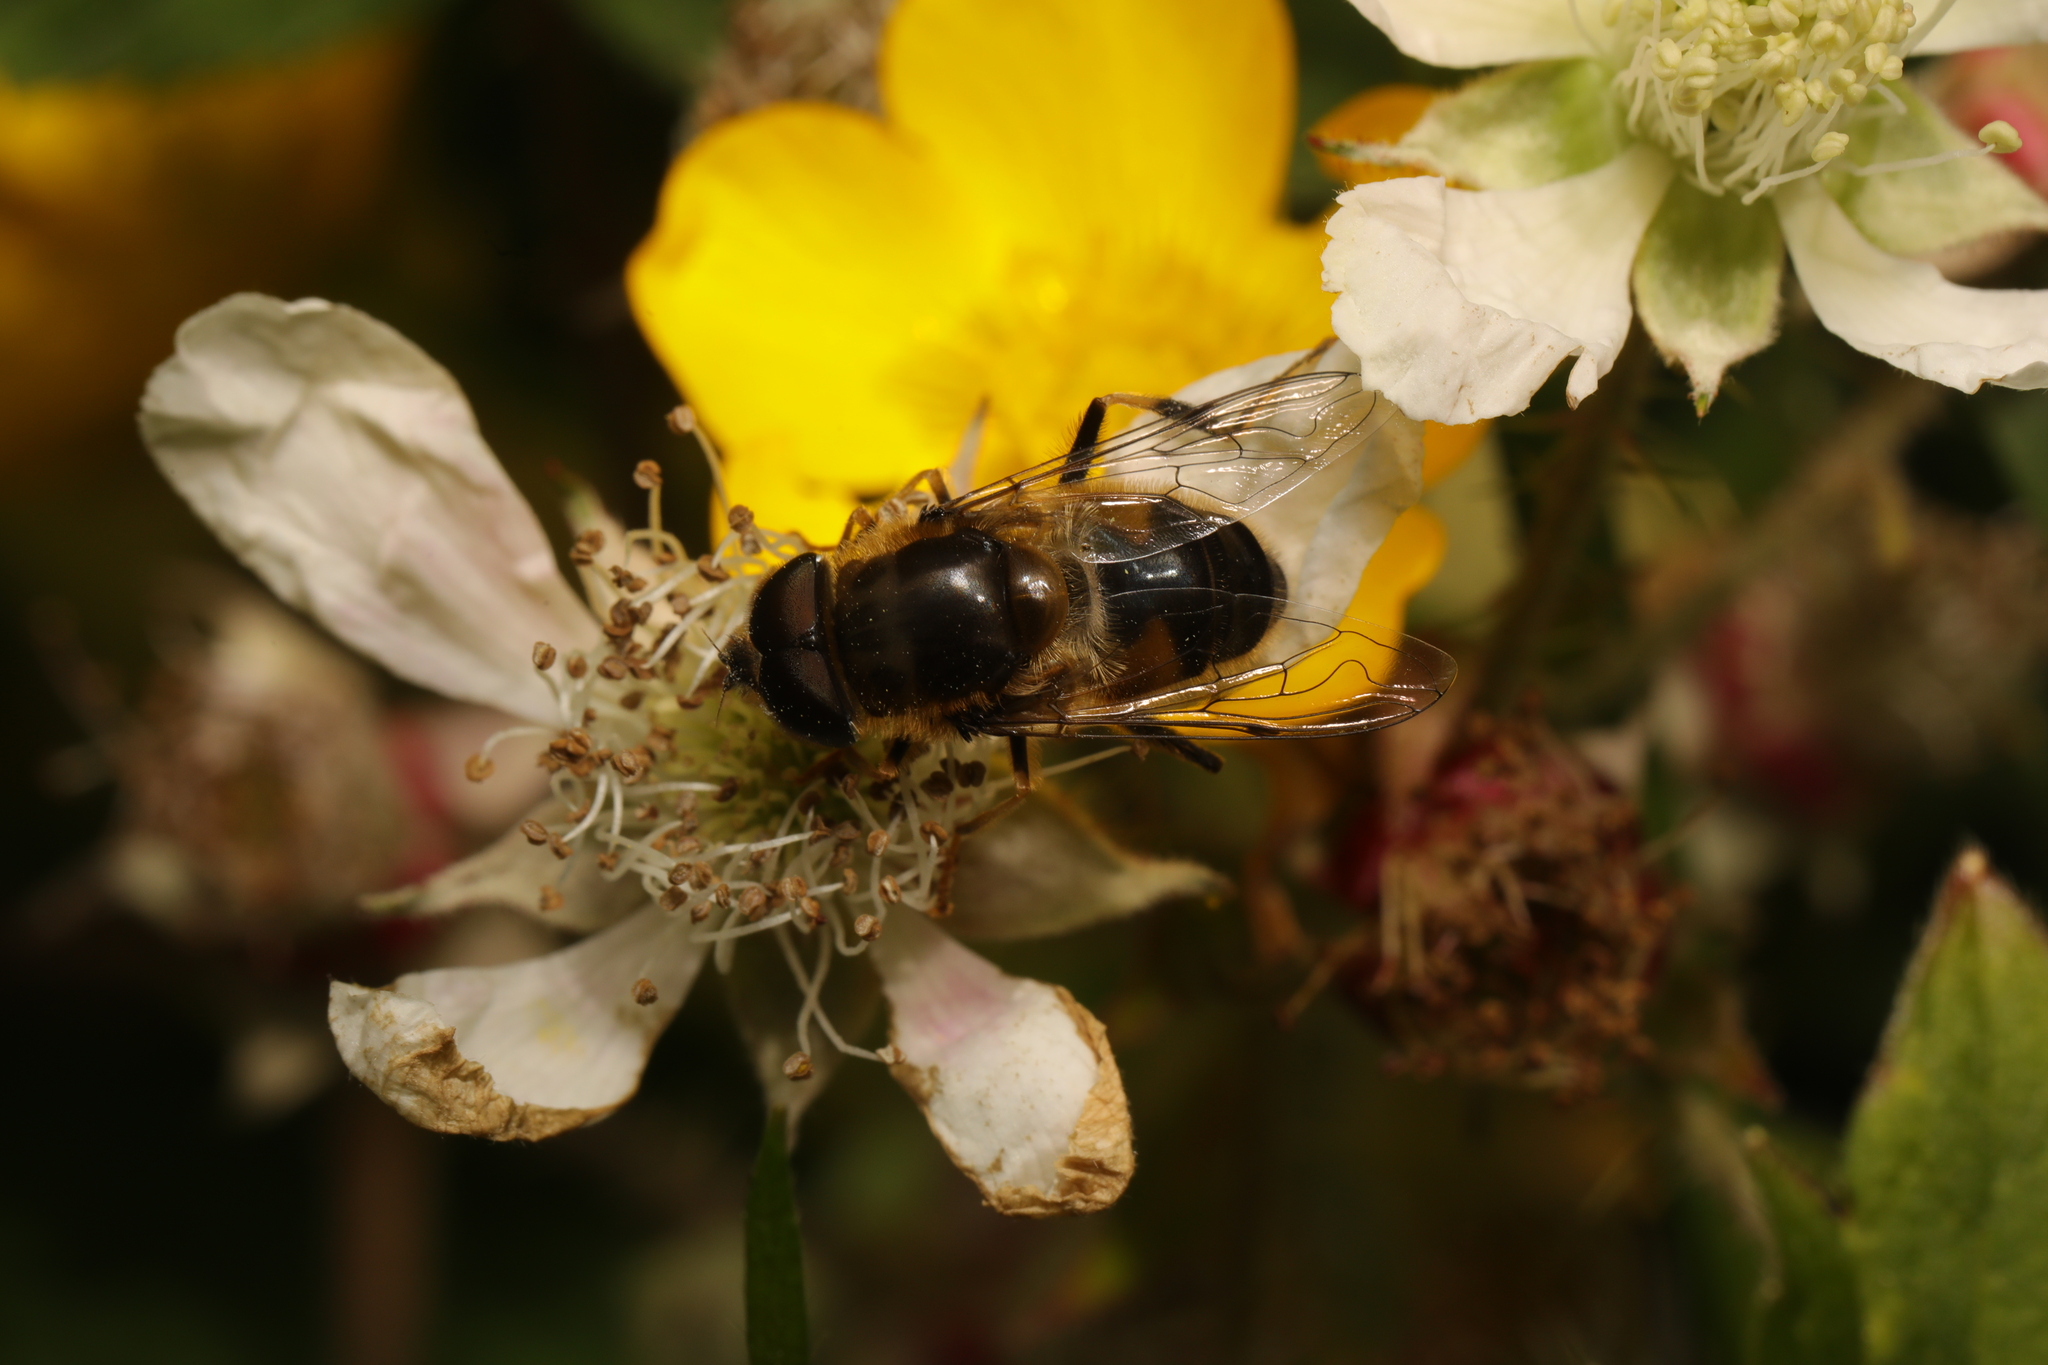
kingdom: Animalia
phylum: Arthropoda
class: Insecta
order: Diptera
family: Syrphidae
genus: Eristalis
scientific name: Eristalis pertinax
